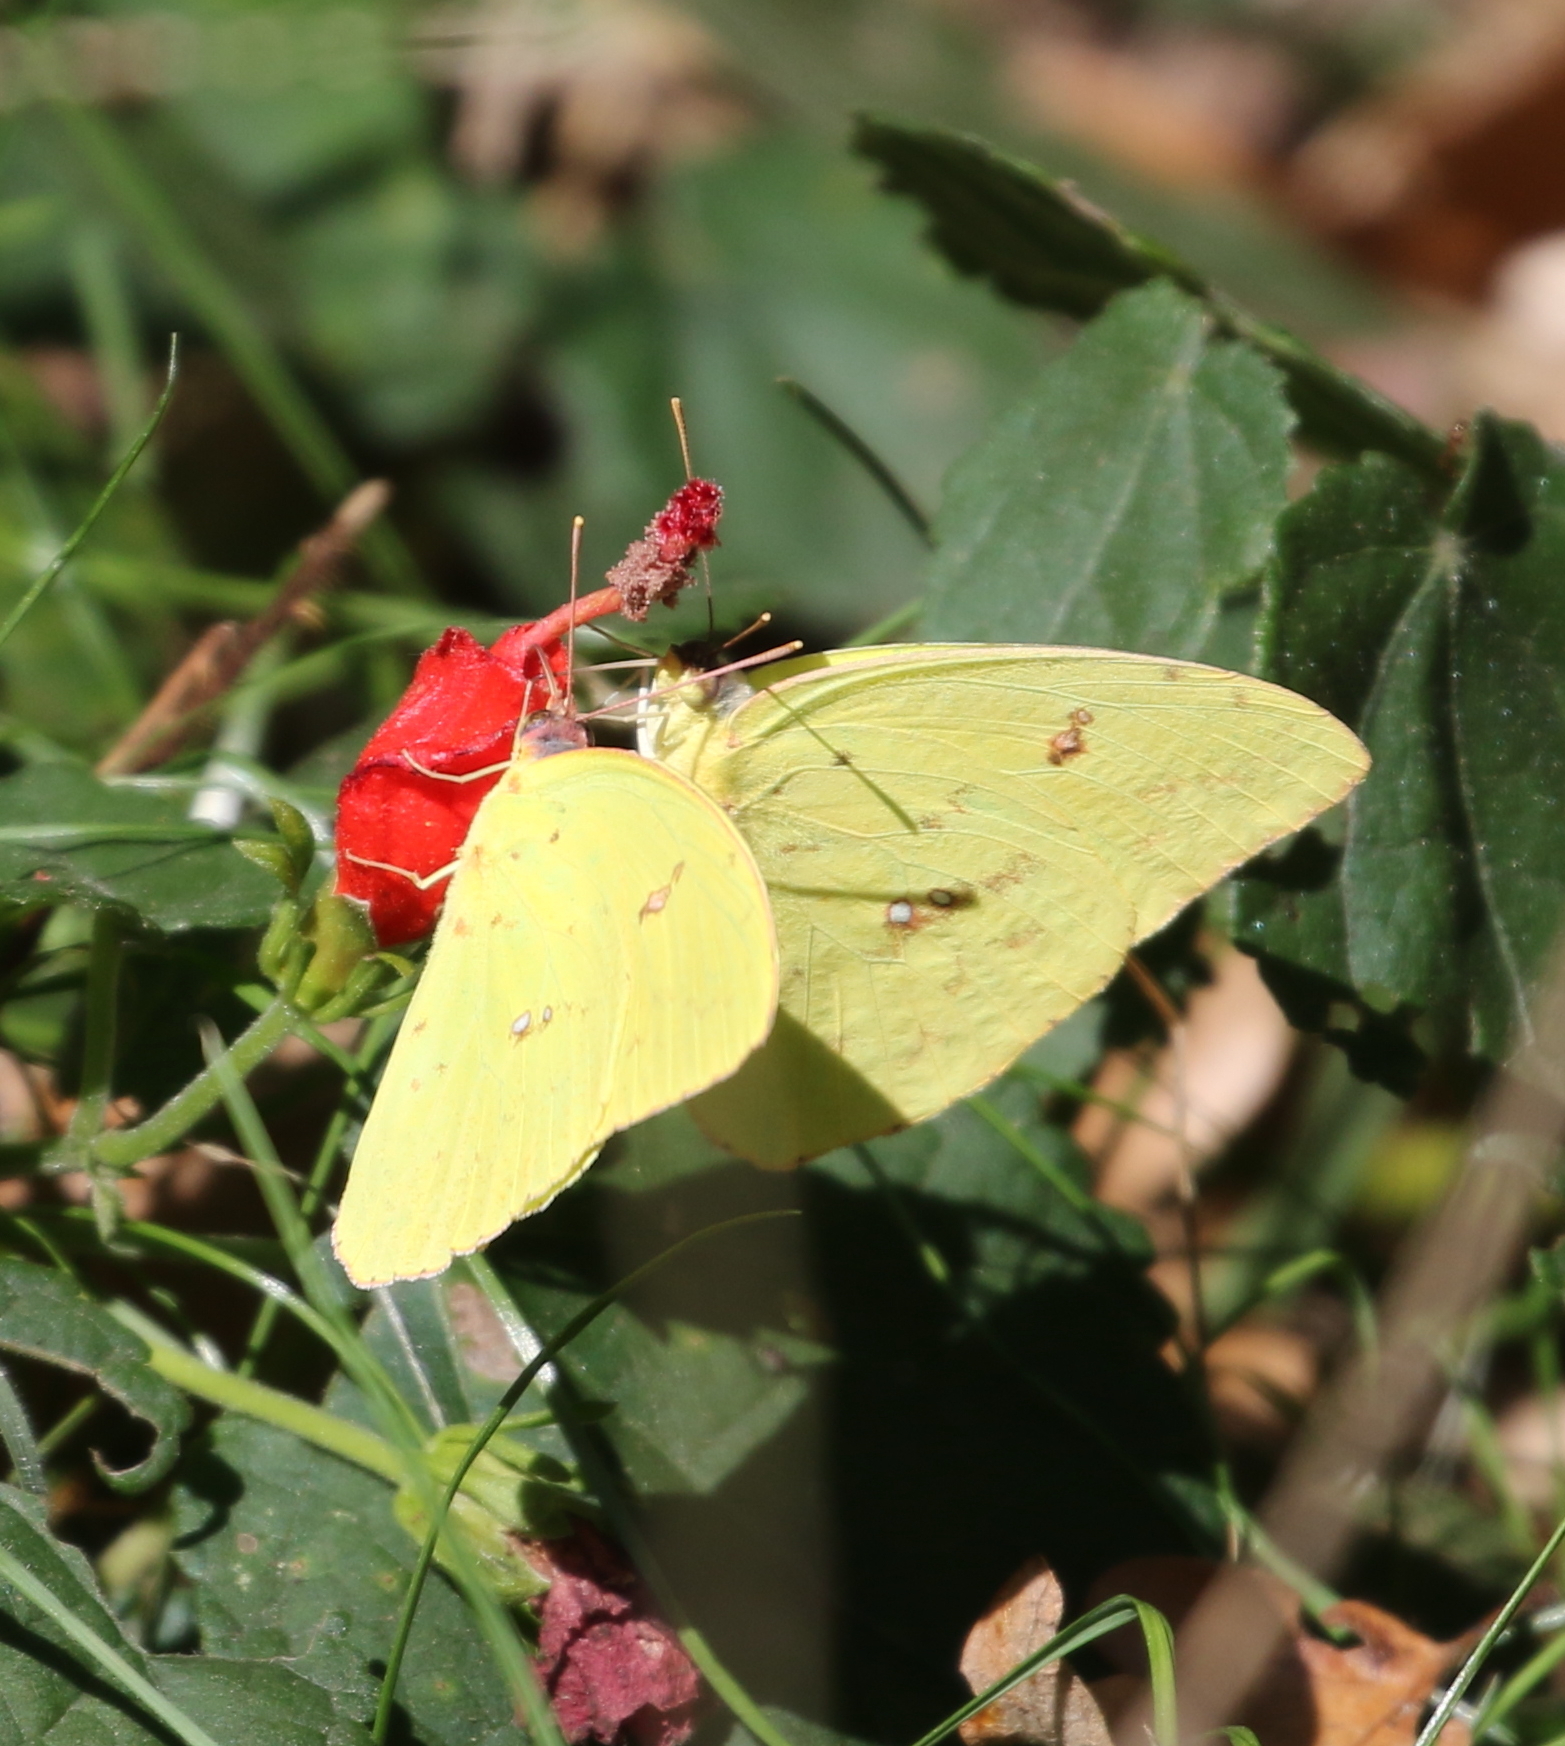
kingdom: Animalia
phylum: Arthropoda
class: Insecta
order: Lepidoptera
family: Pieridae
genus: Phoebis
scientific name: Phoebis sennae
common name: Cloudless sulphur
